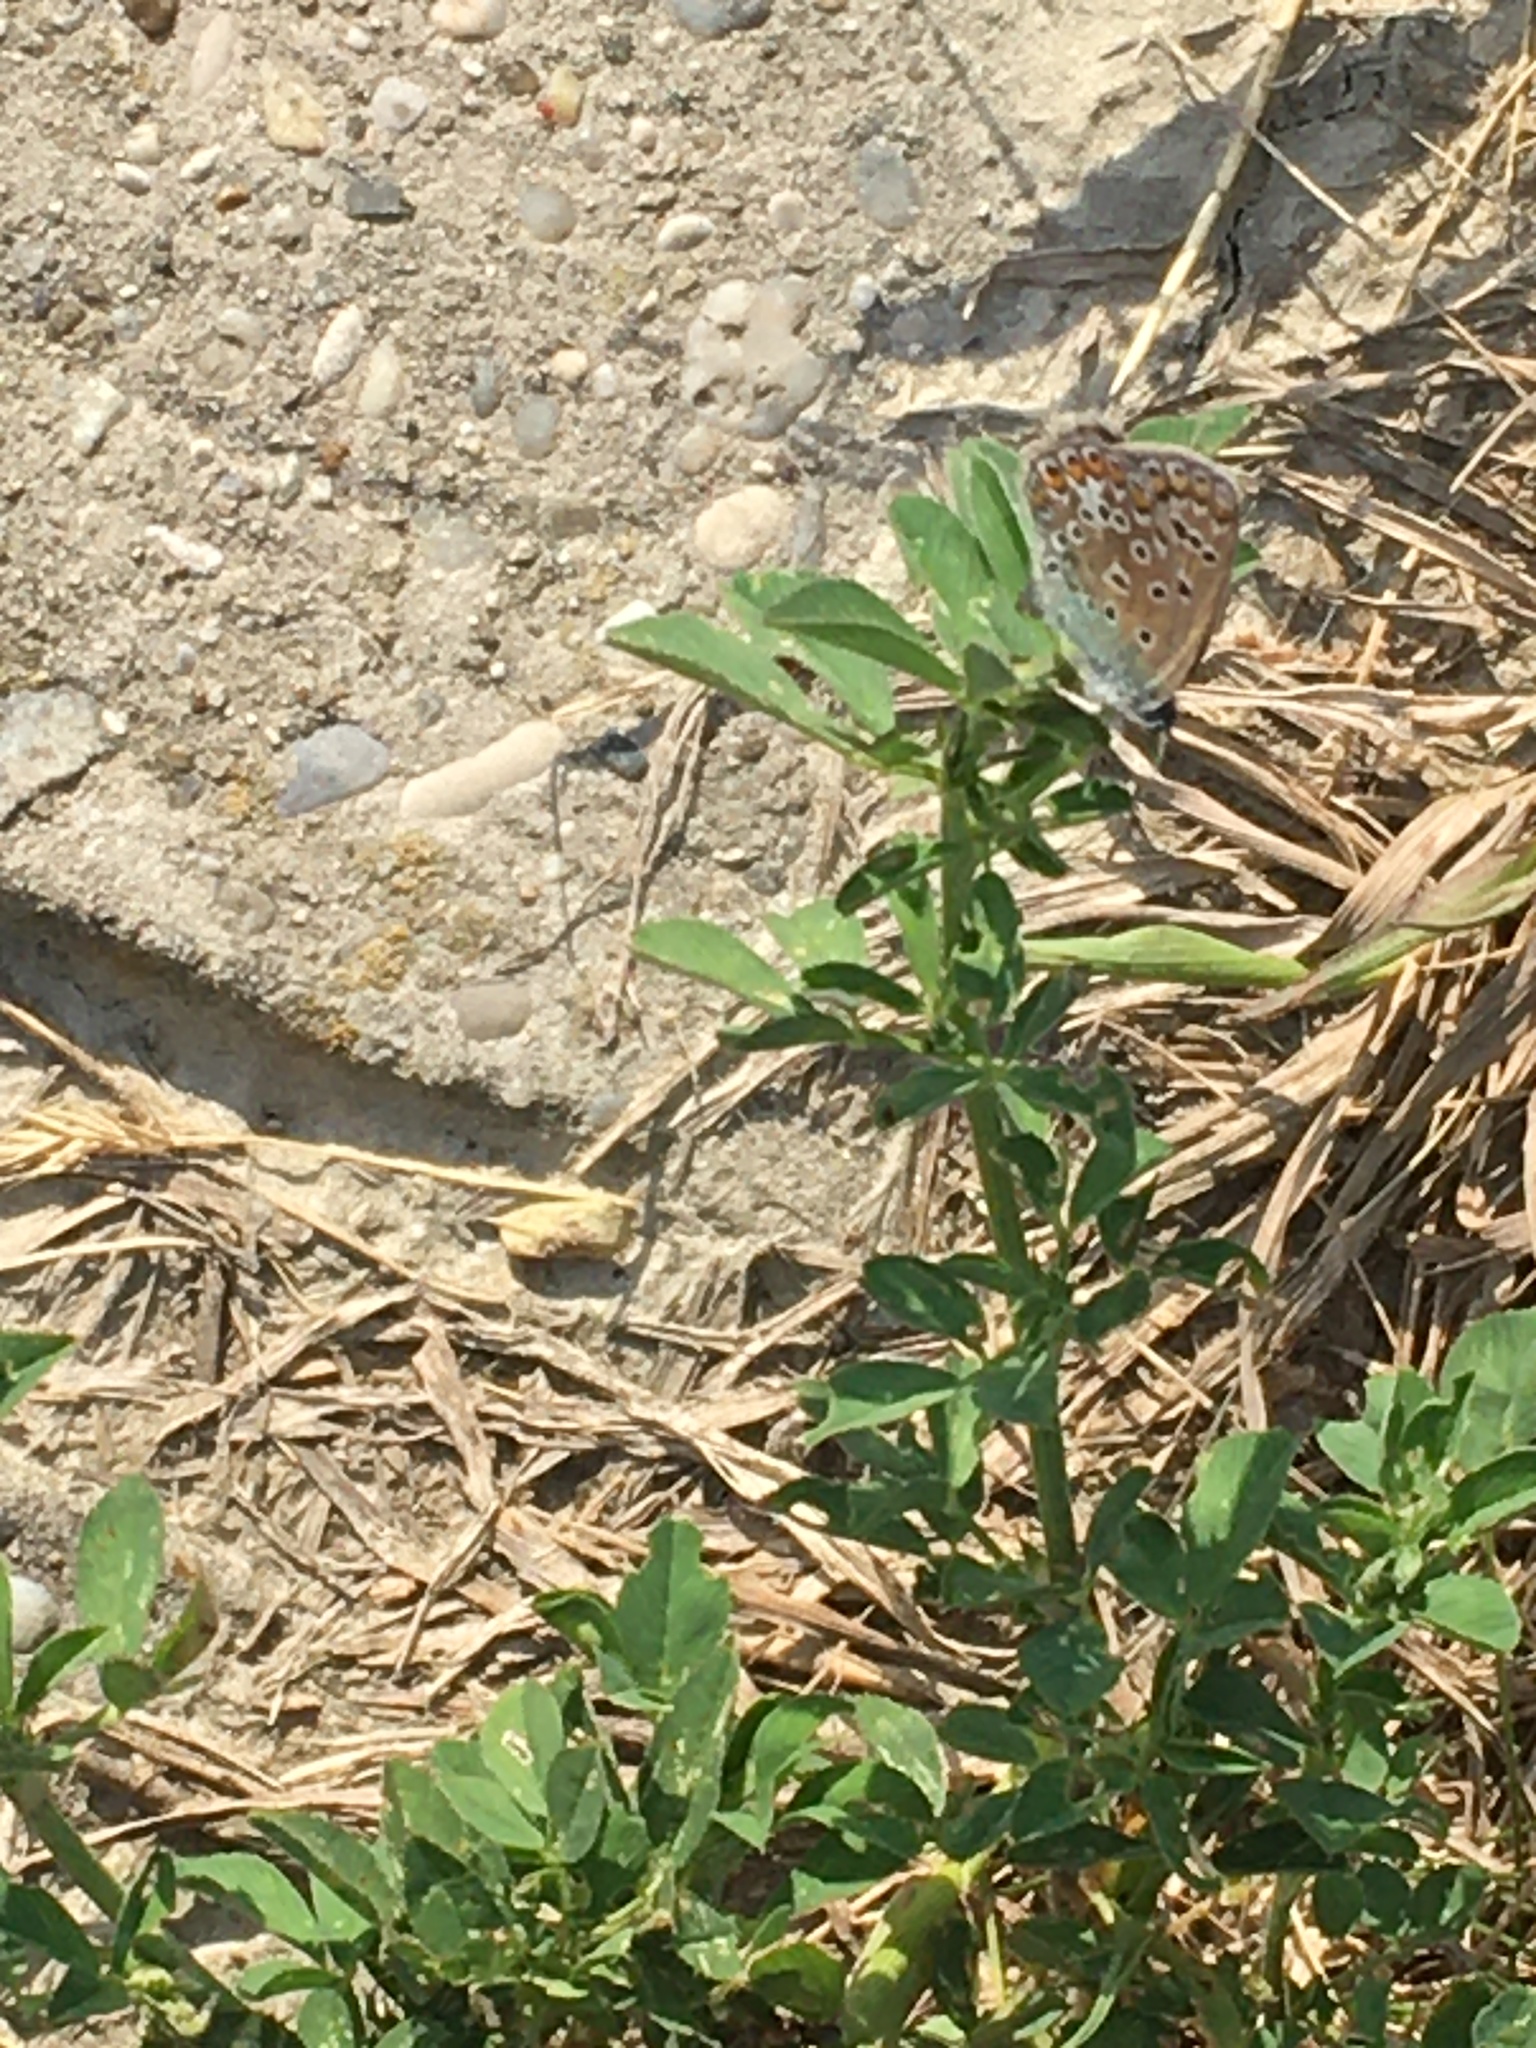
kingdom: Animalia
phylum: Arthropoda
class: Insecta
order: Lepidoptera
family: Lycaenidae
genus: Polyommatus
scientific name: Polyommatus icarus
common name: Common blue
